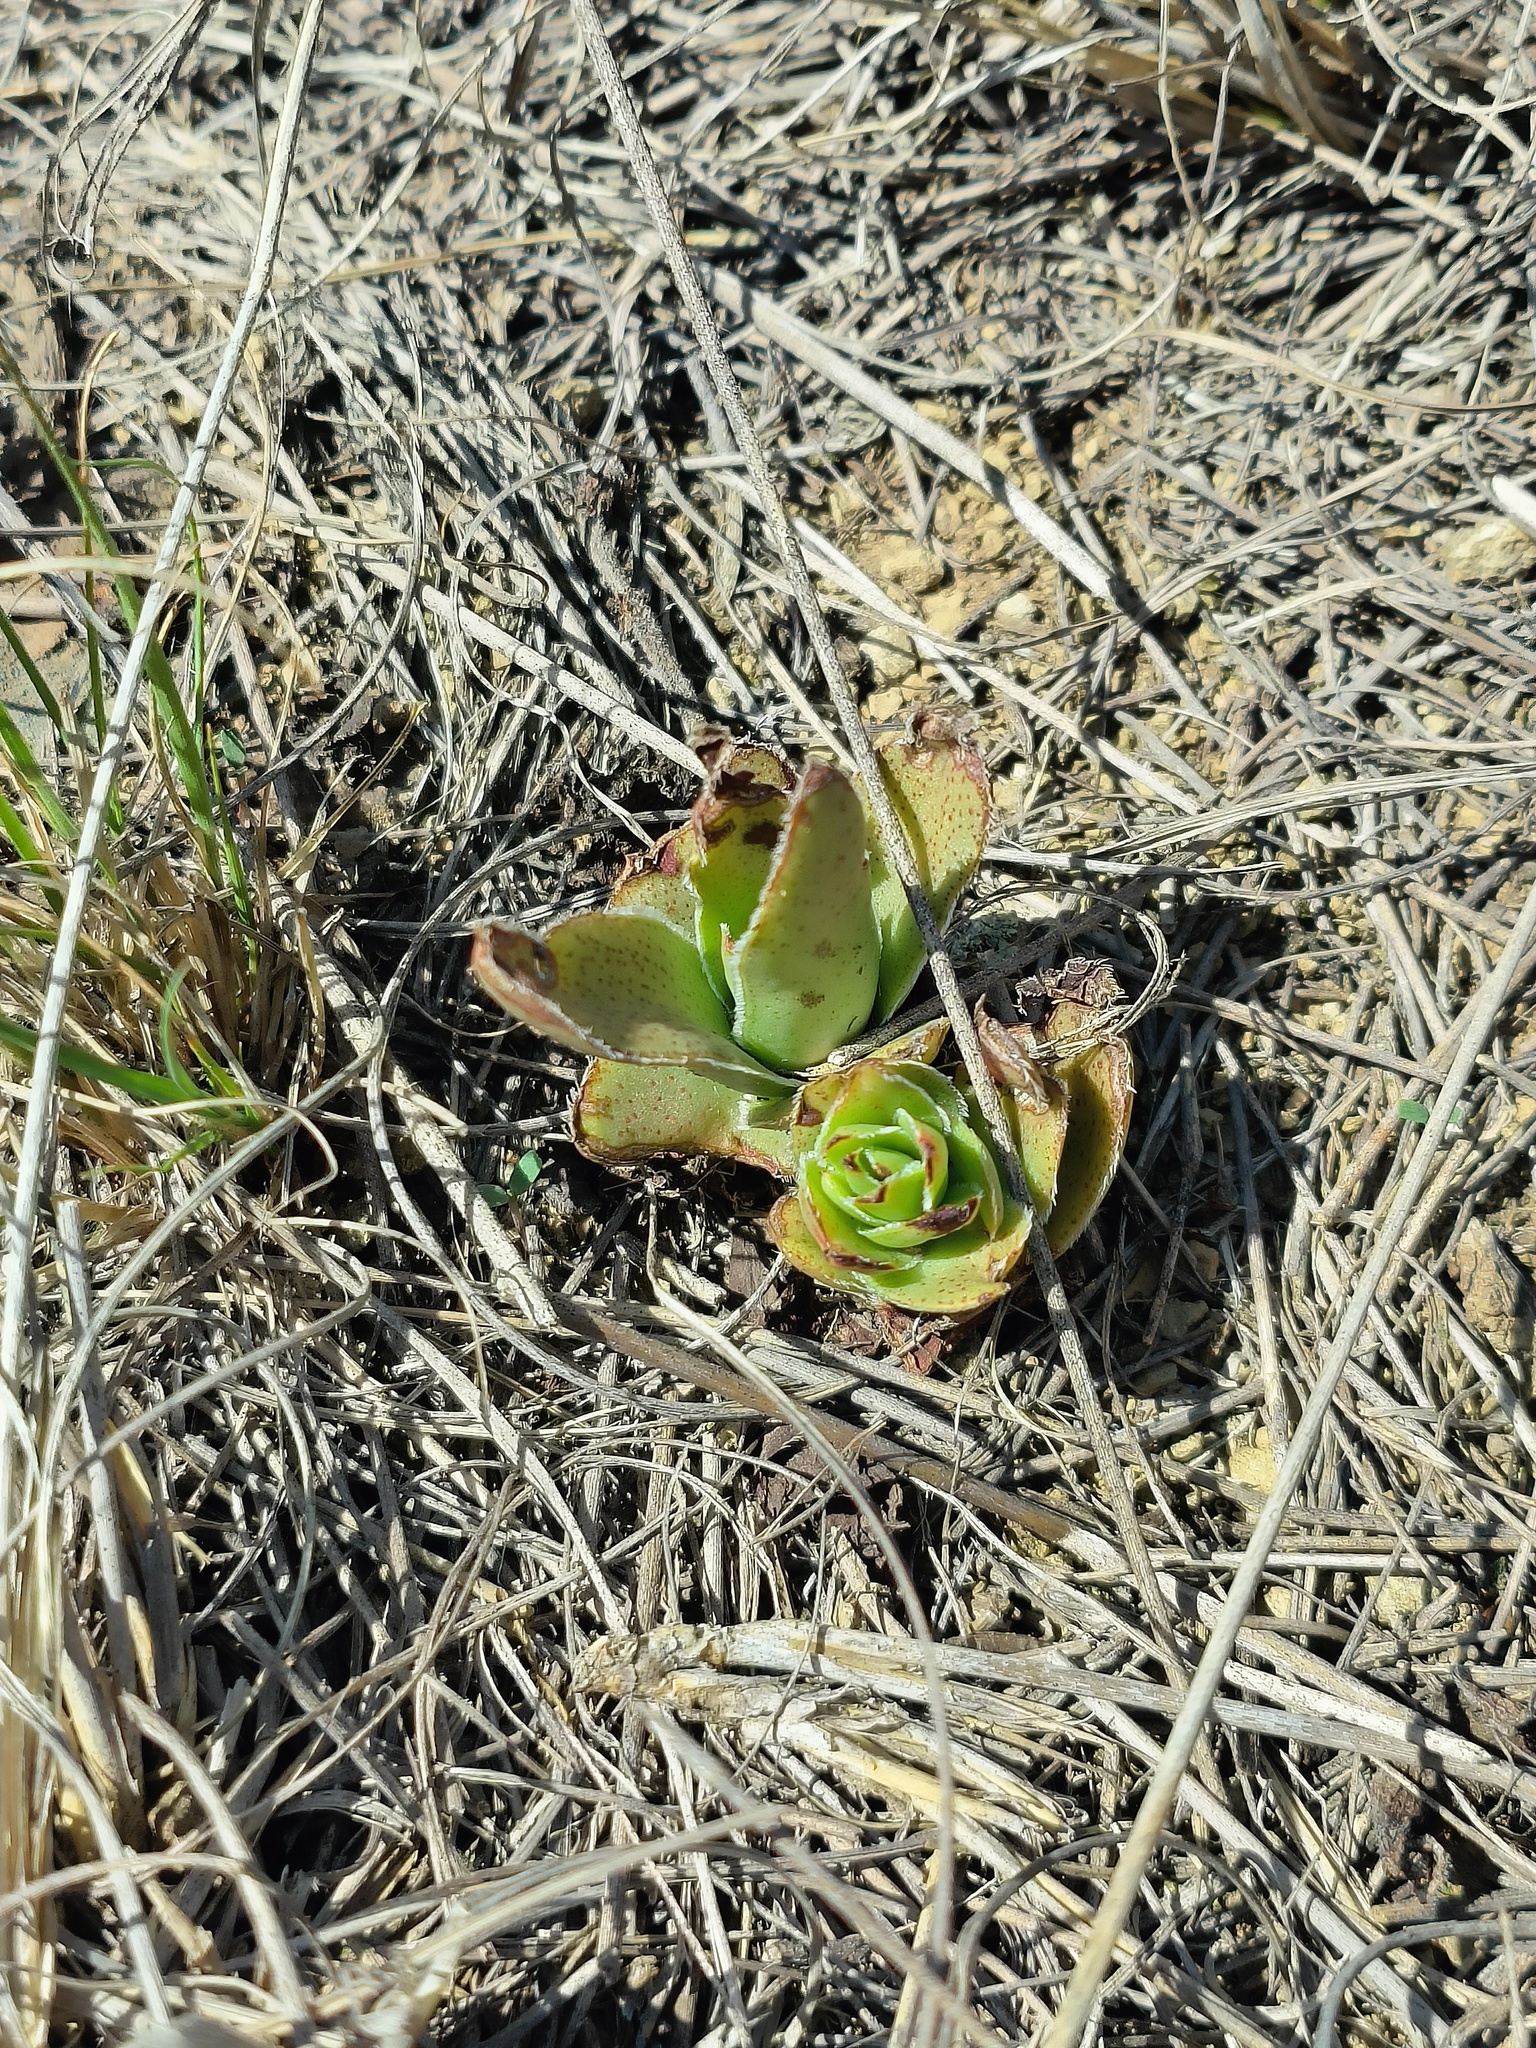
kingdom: Plantae
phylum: Tracheophyta
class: Magnoliopsida
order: Saxifragales
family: Crassulaceae
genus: Crassula
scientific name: Crassula capitella
